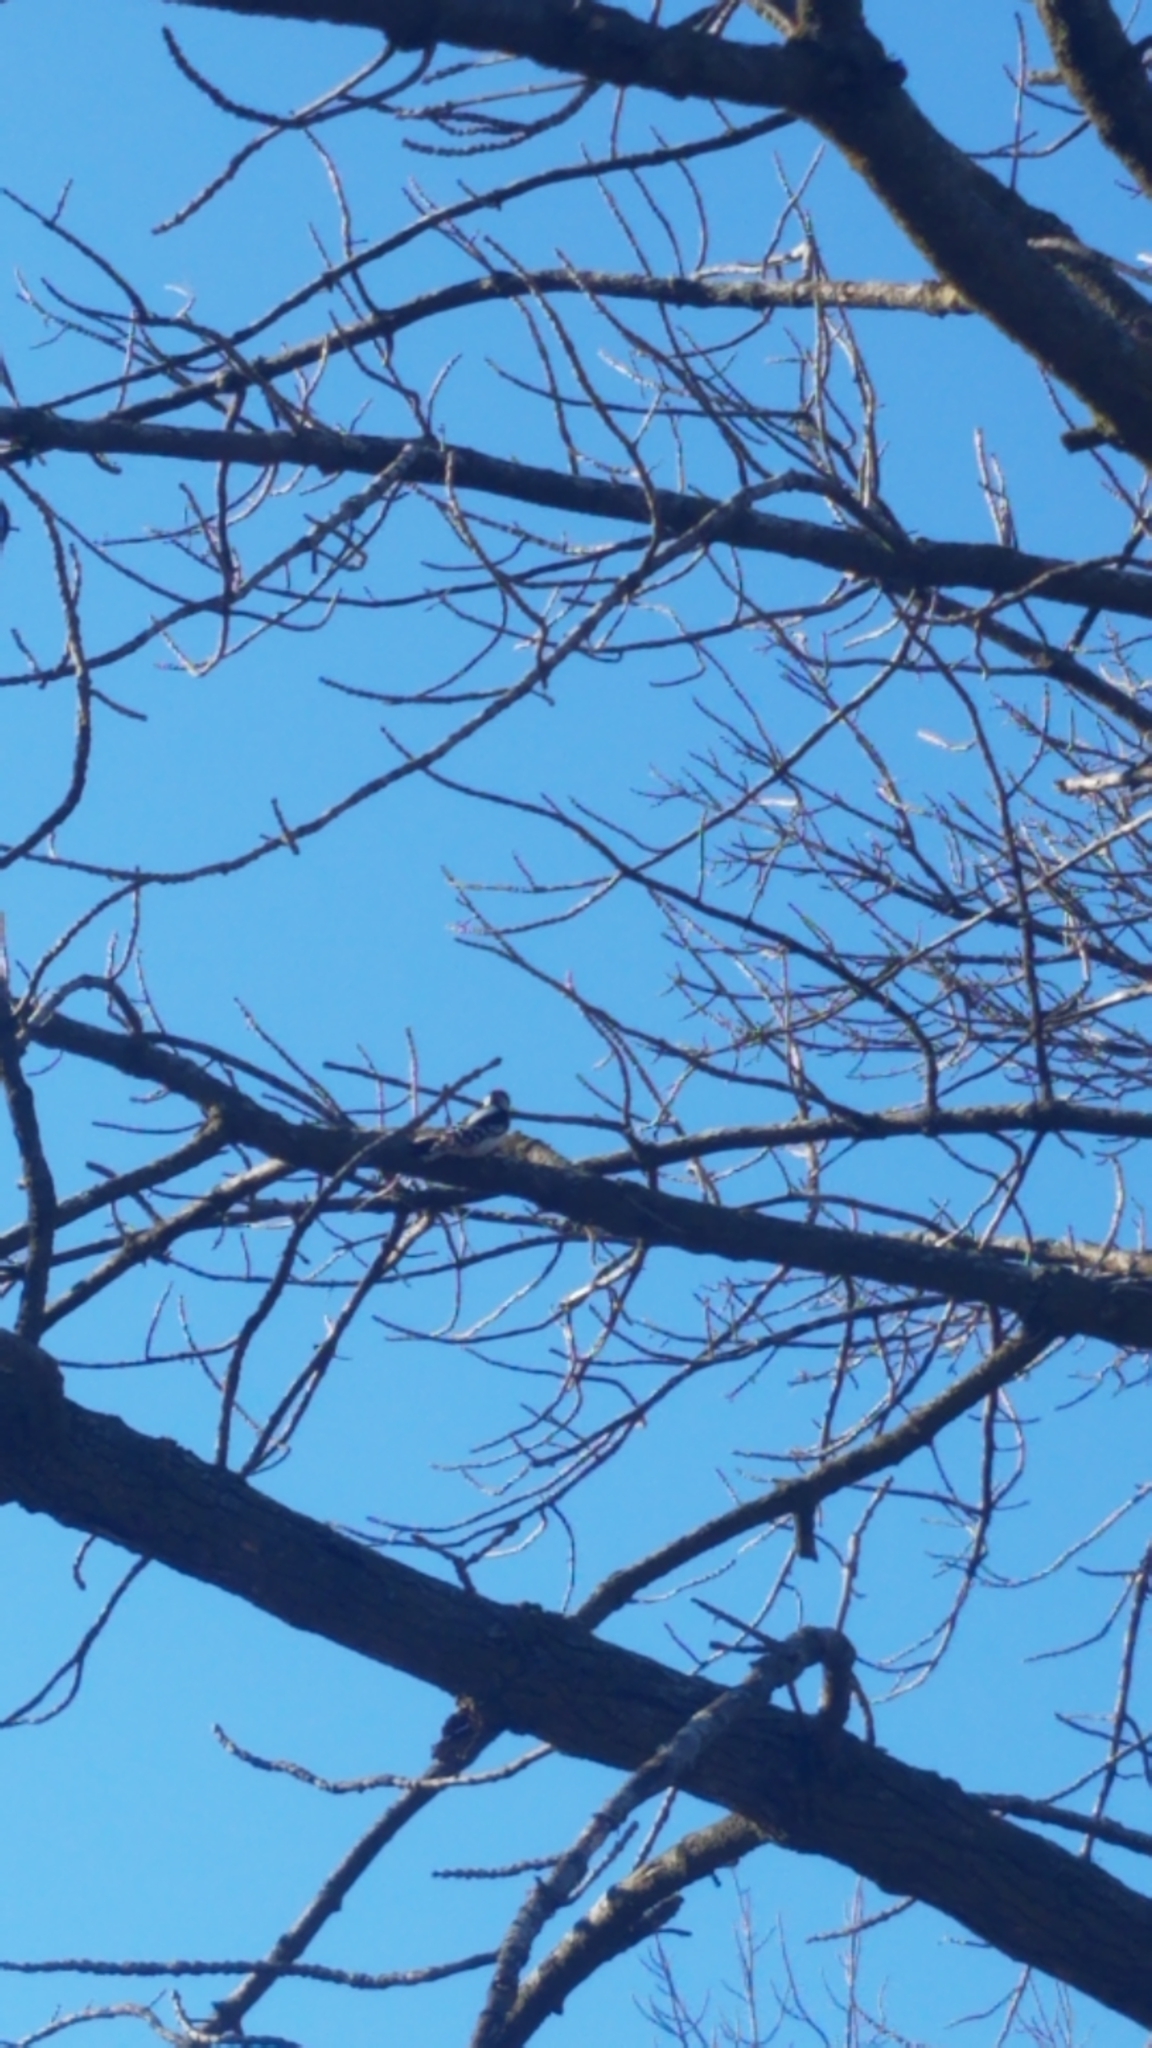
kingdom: Animalia
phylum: Chordata
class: Aves
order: Piciformes
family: Picidae
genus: Dryobates
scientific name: Dryobates pubescens
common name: Downy woodpecker
